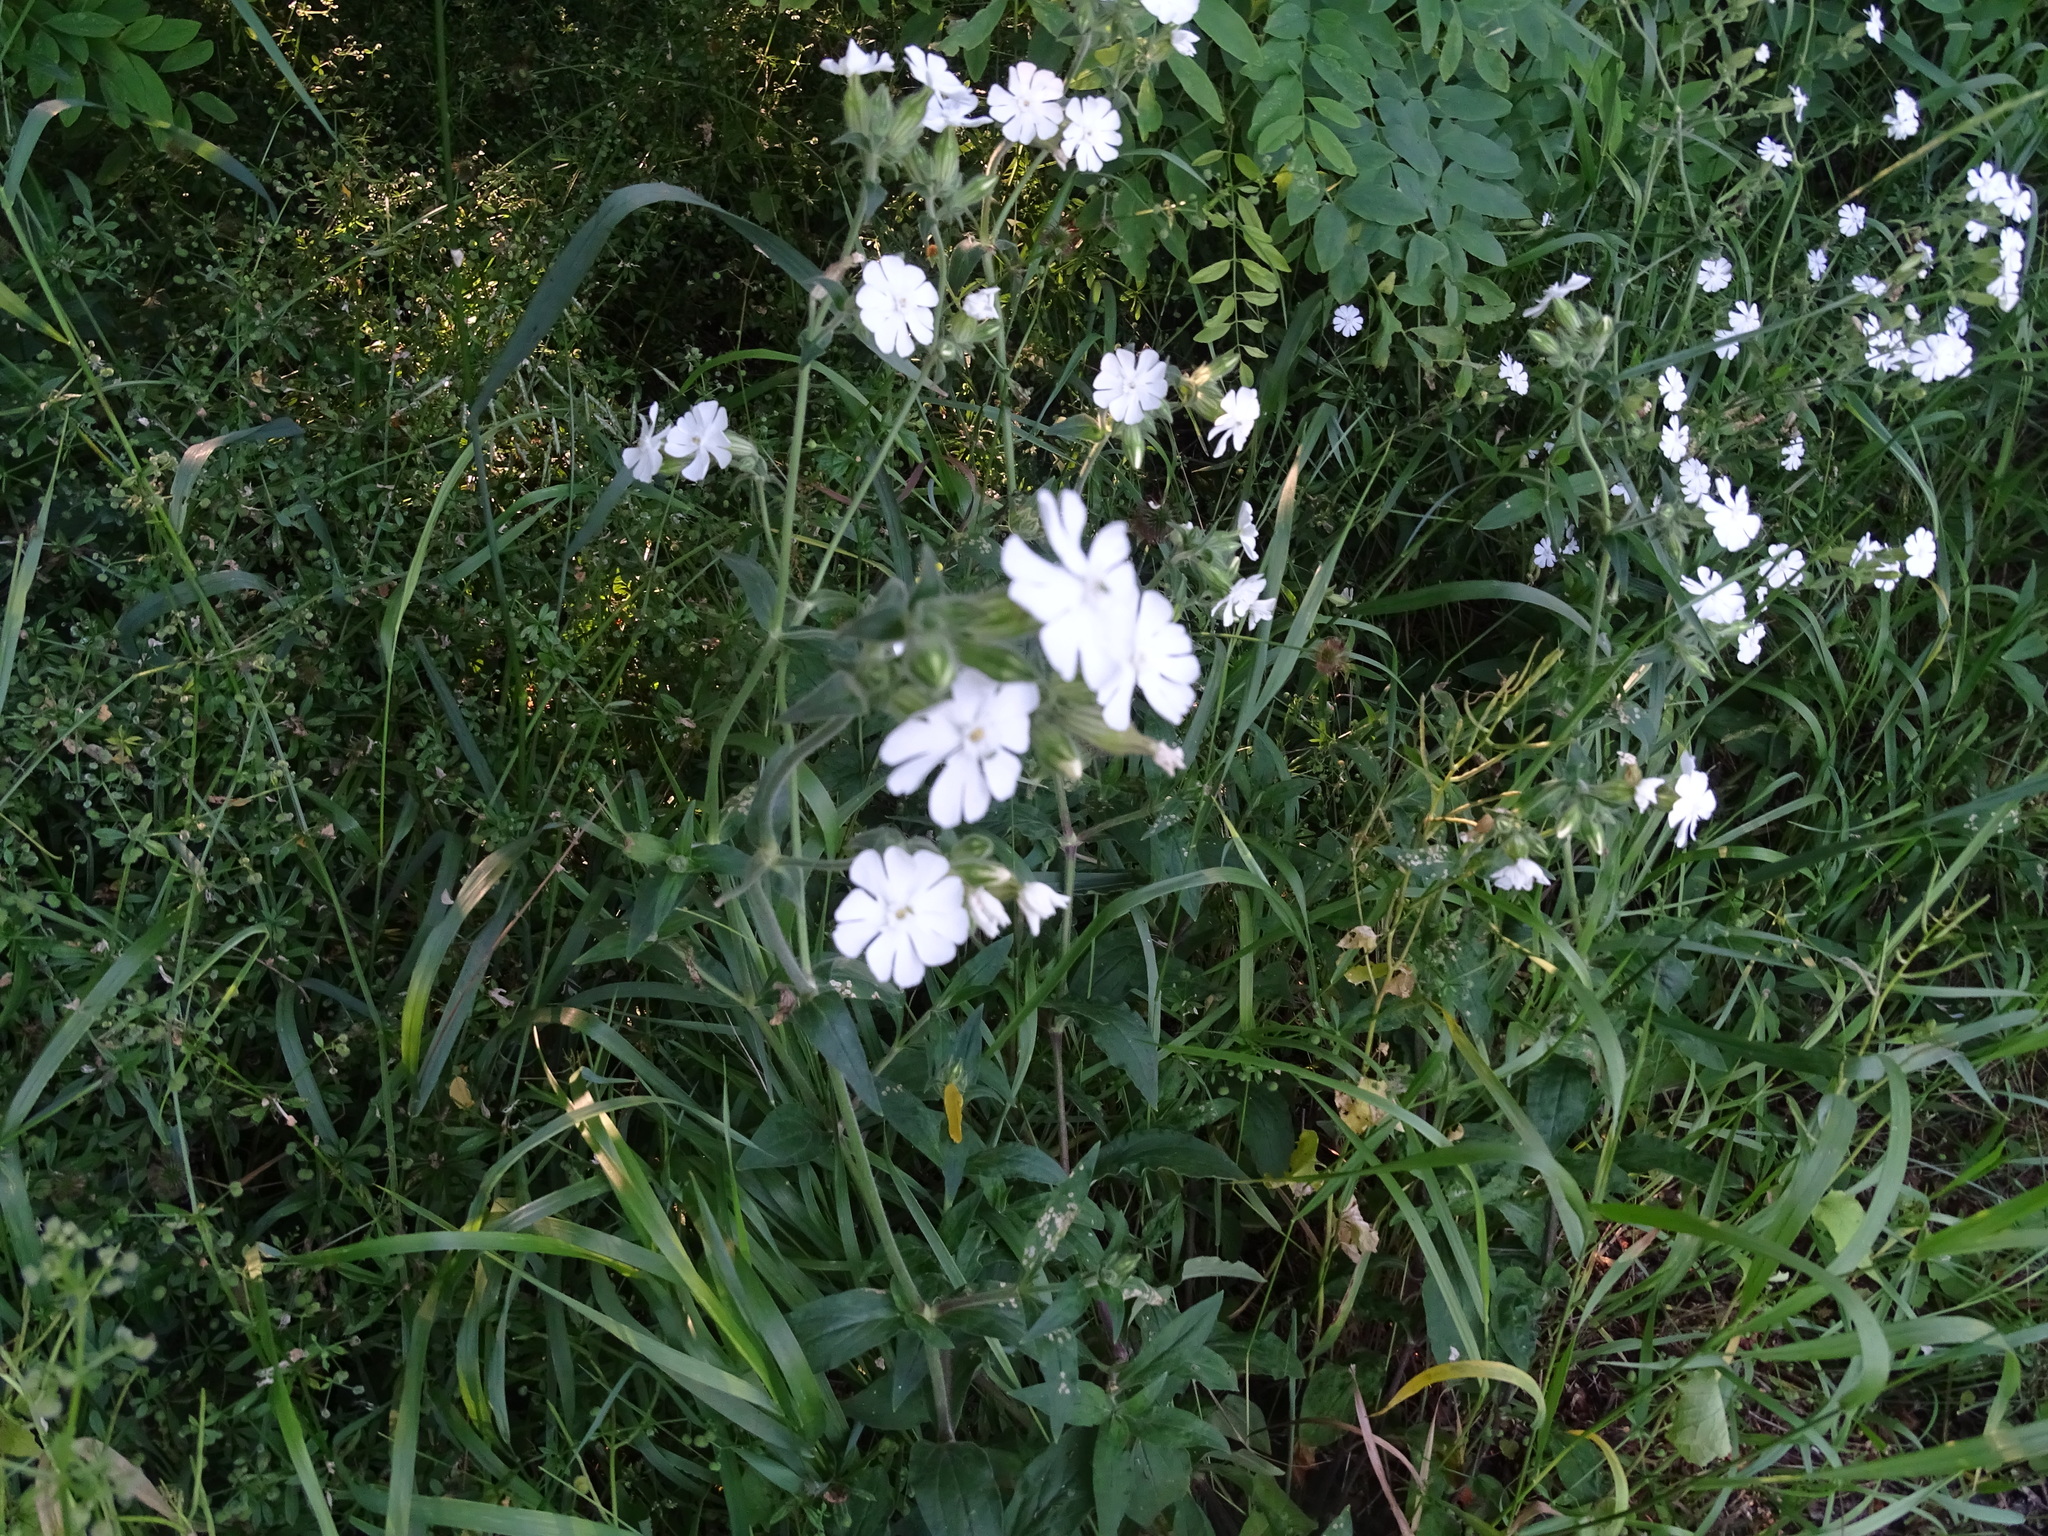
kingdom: Plantae
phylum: Tracheophyta
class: Magnoliopsida
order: Caryophyllales
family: Caryophyllaceae
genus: Silene
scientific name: Silene latifolia
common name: White campion
